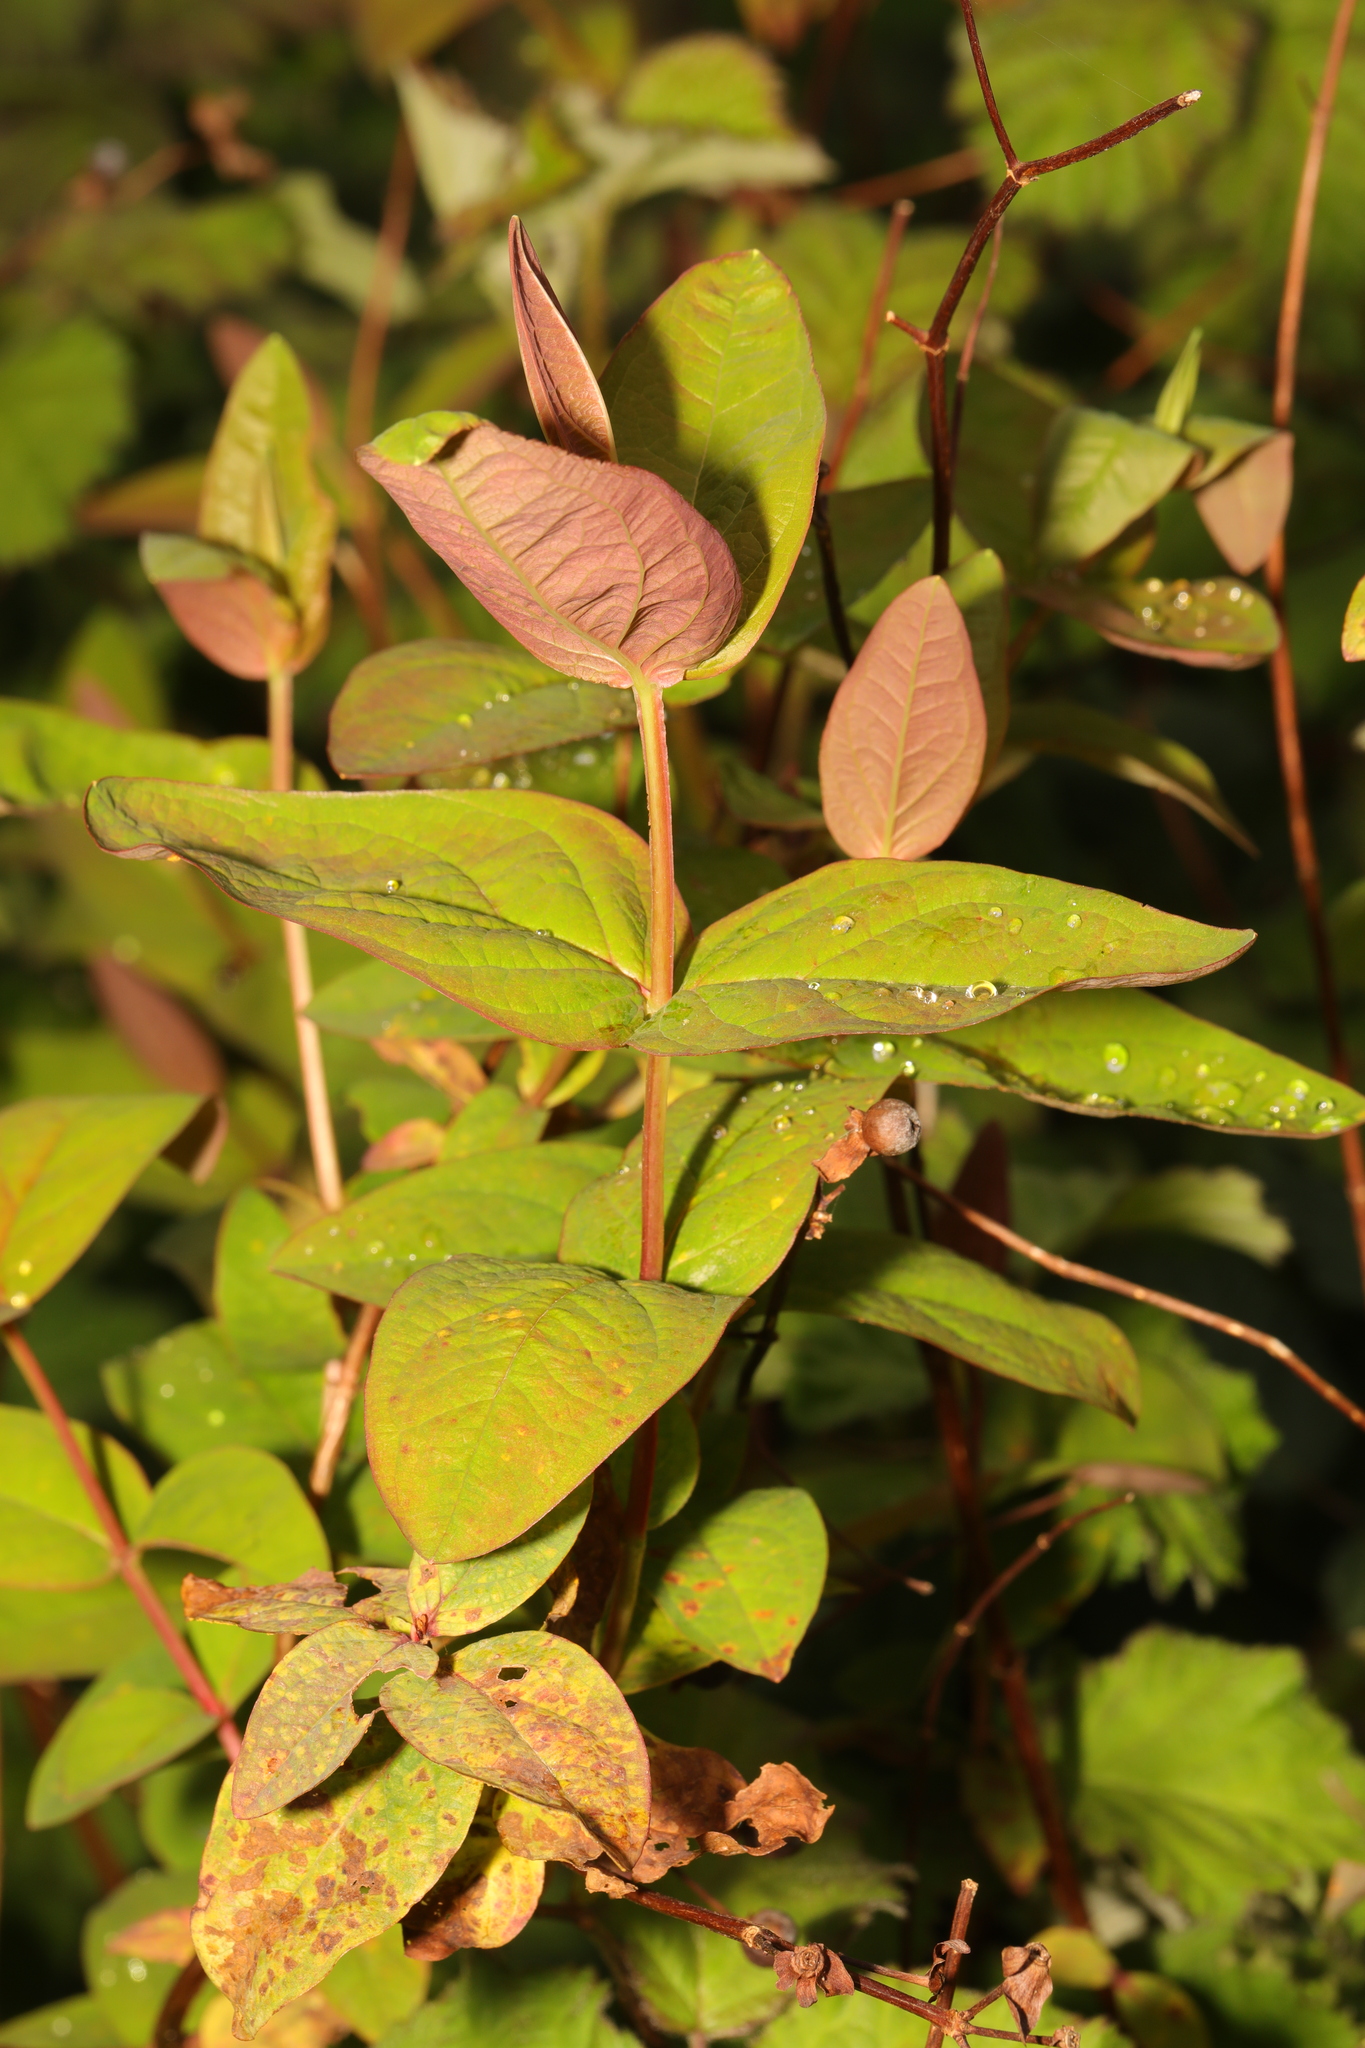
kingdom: Plantae
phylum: Tracheophyta
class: Magnoliopsida
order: Malpighiales
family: Hypericaceae
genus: Hypericum
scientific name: Hypericum androsaemum
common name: Sweet-amber
